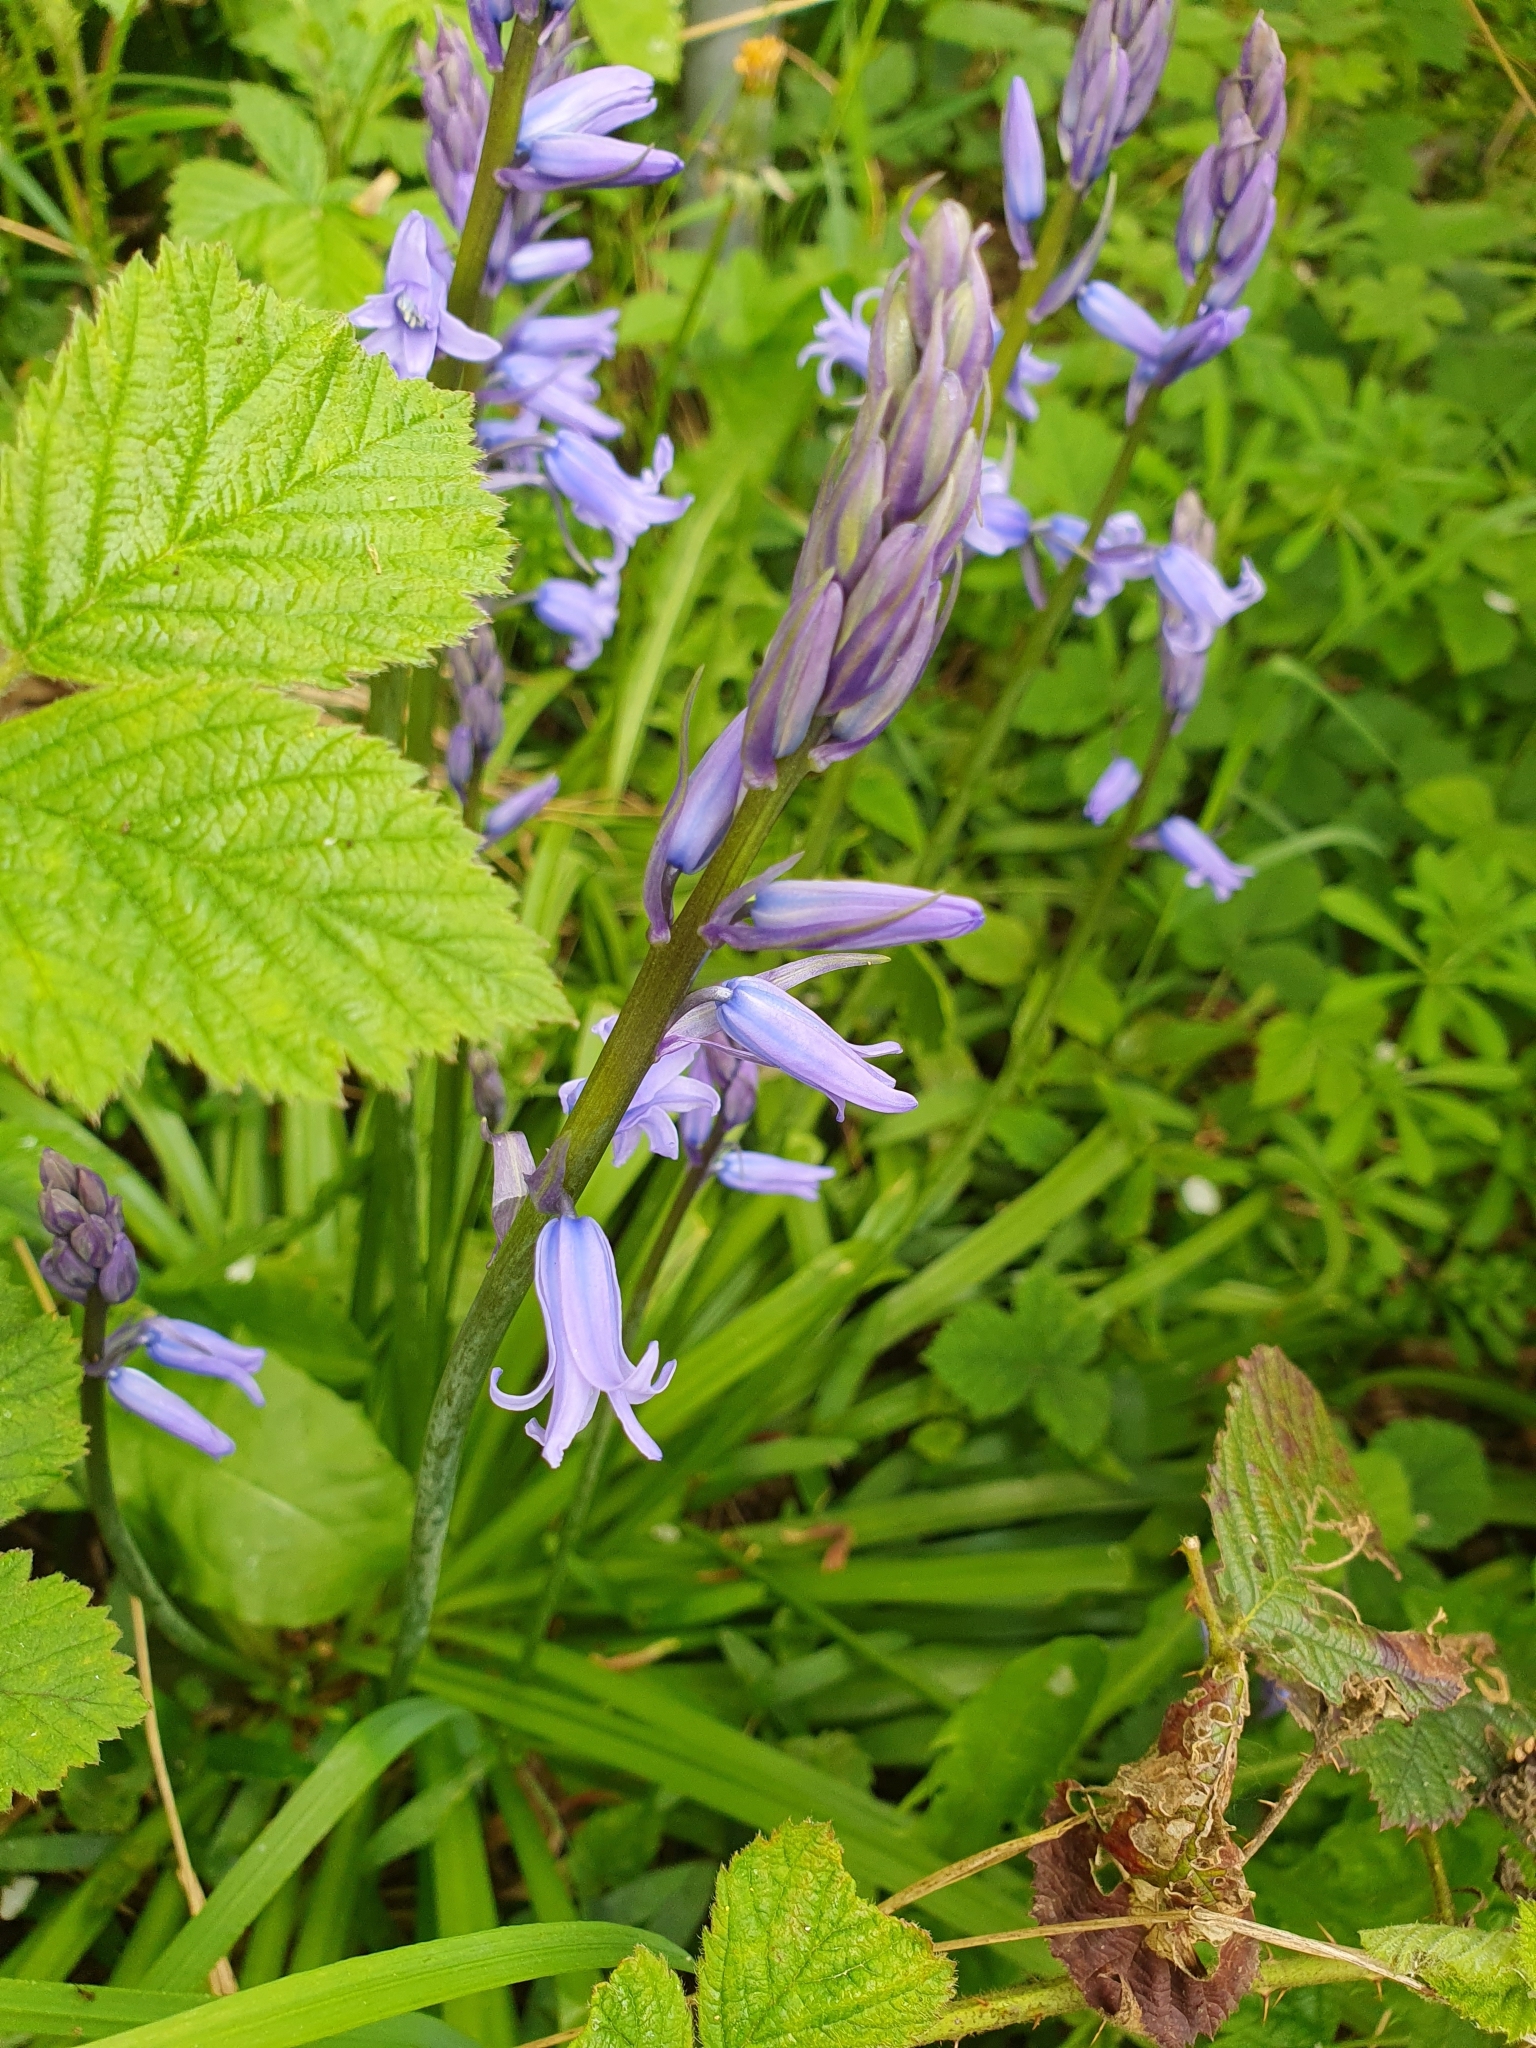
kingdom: Plantae
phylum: Tracheophyta
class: Liliopsida
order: Asparagales
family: Asparagaceae
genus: Hyacinthoides
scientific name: Hyacinthoides hispanica
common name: Spanish bluebell
